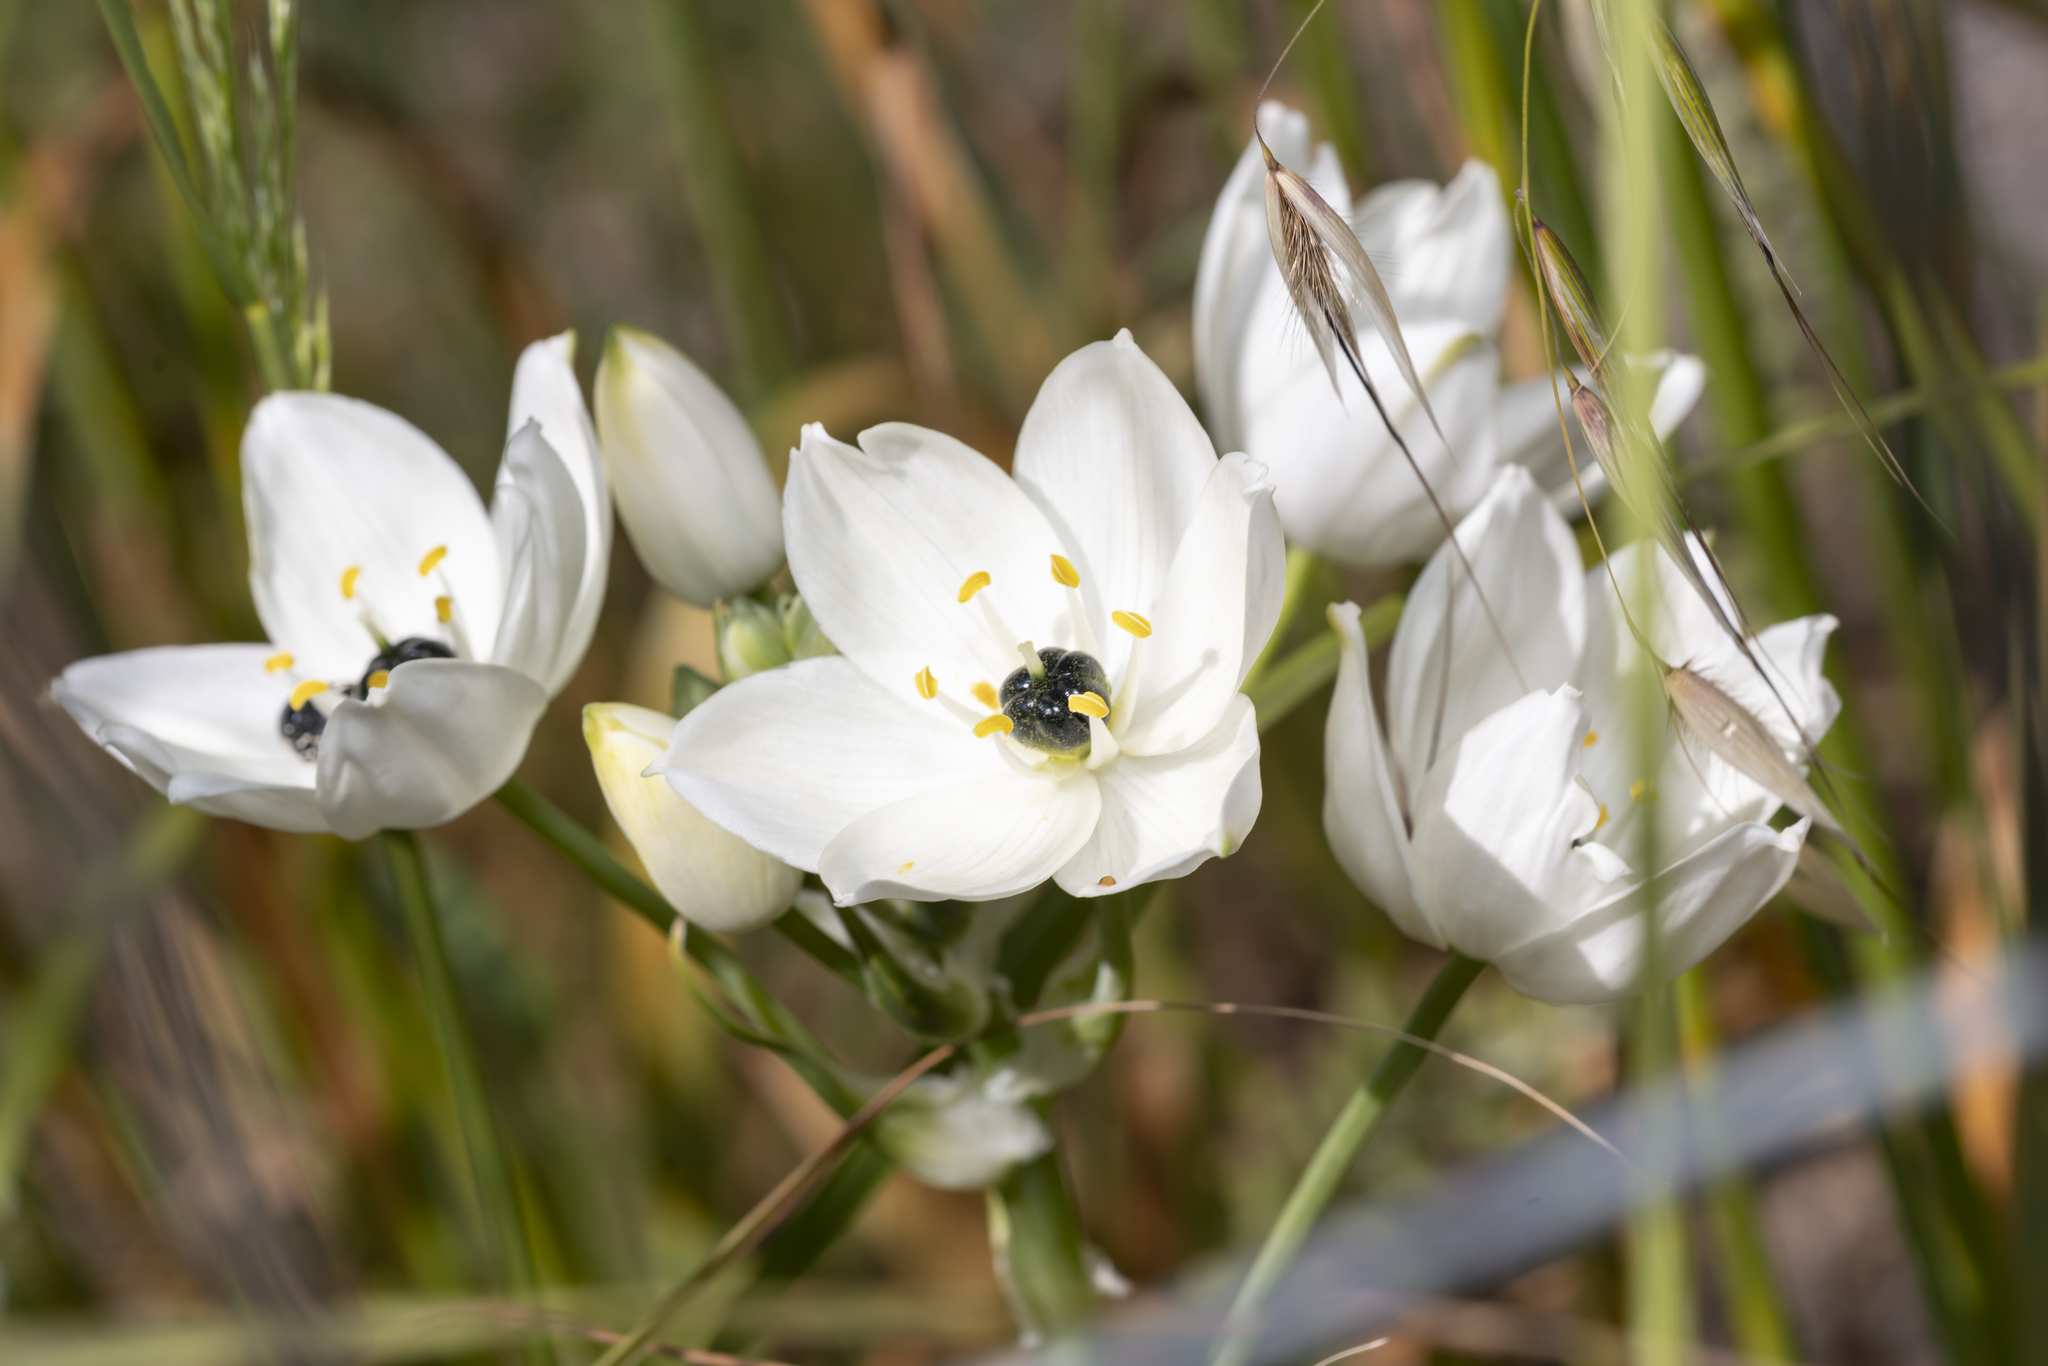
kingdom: Plantae
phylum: Tracheophyta
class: Liliopsida
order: Asparagales
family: Asparagaceae
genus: Ornithogalum
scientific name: Ornithogalum arabicum
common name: Arabian starflower
